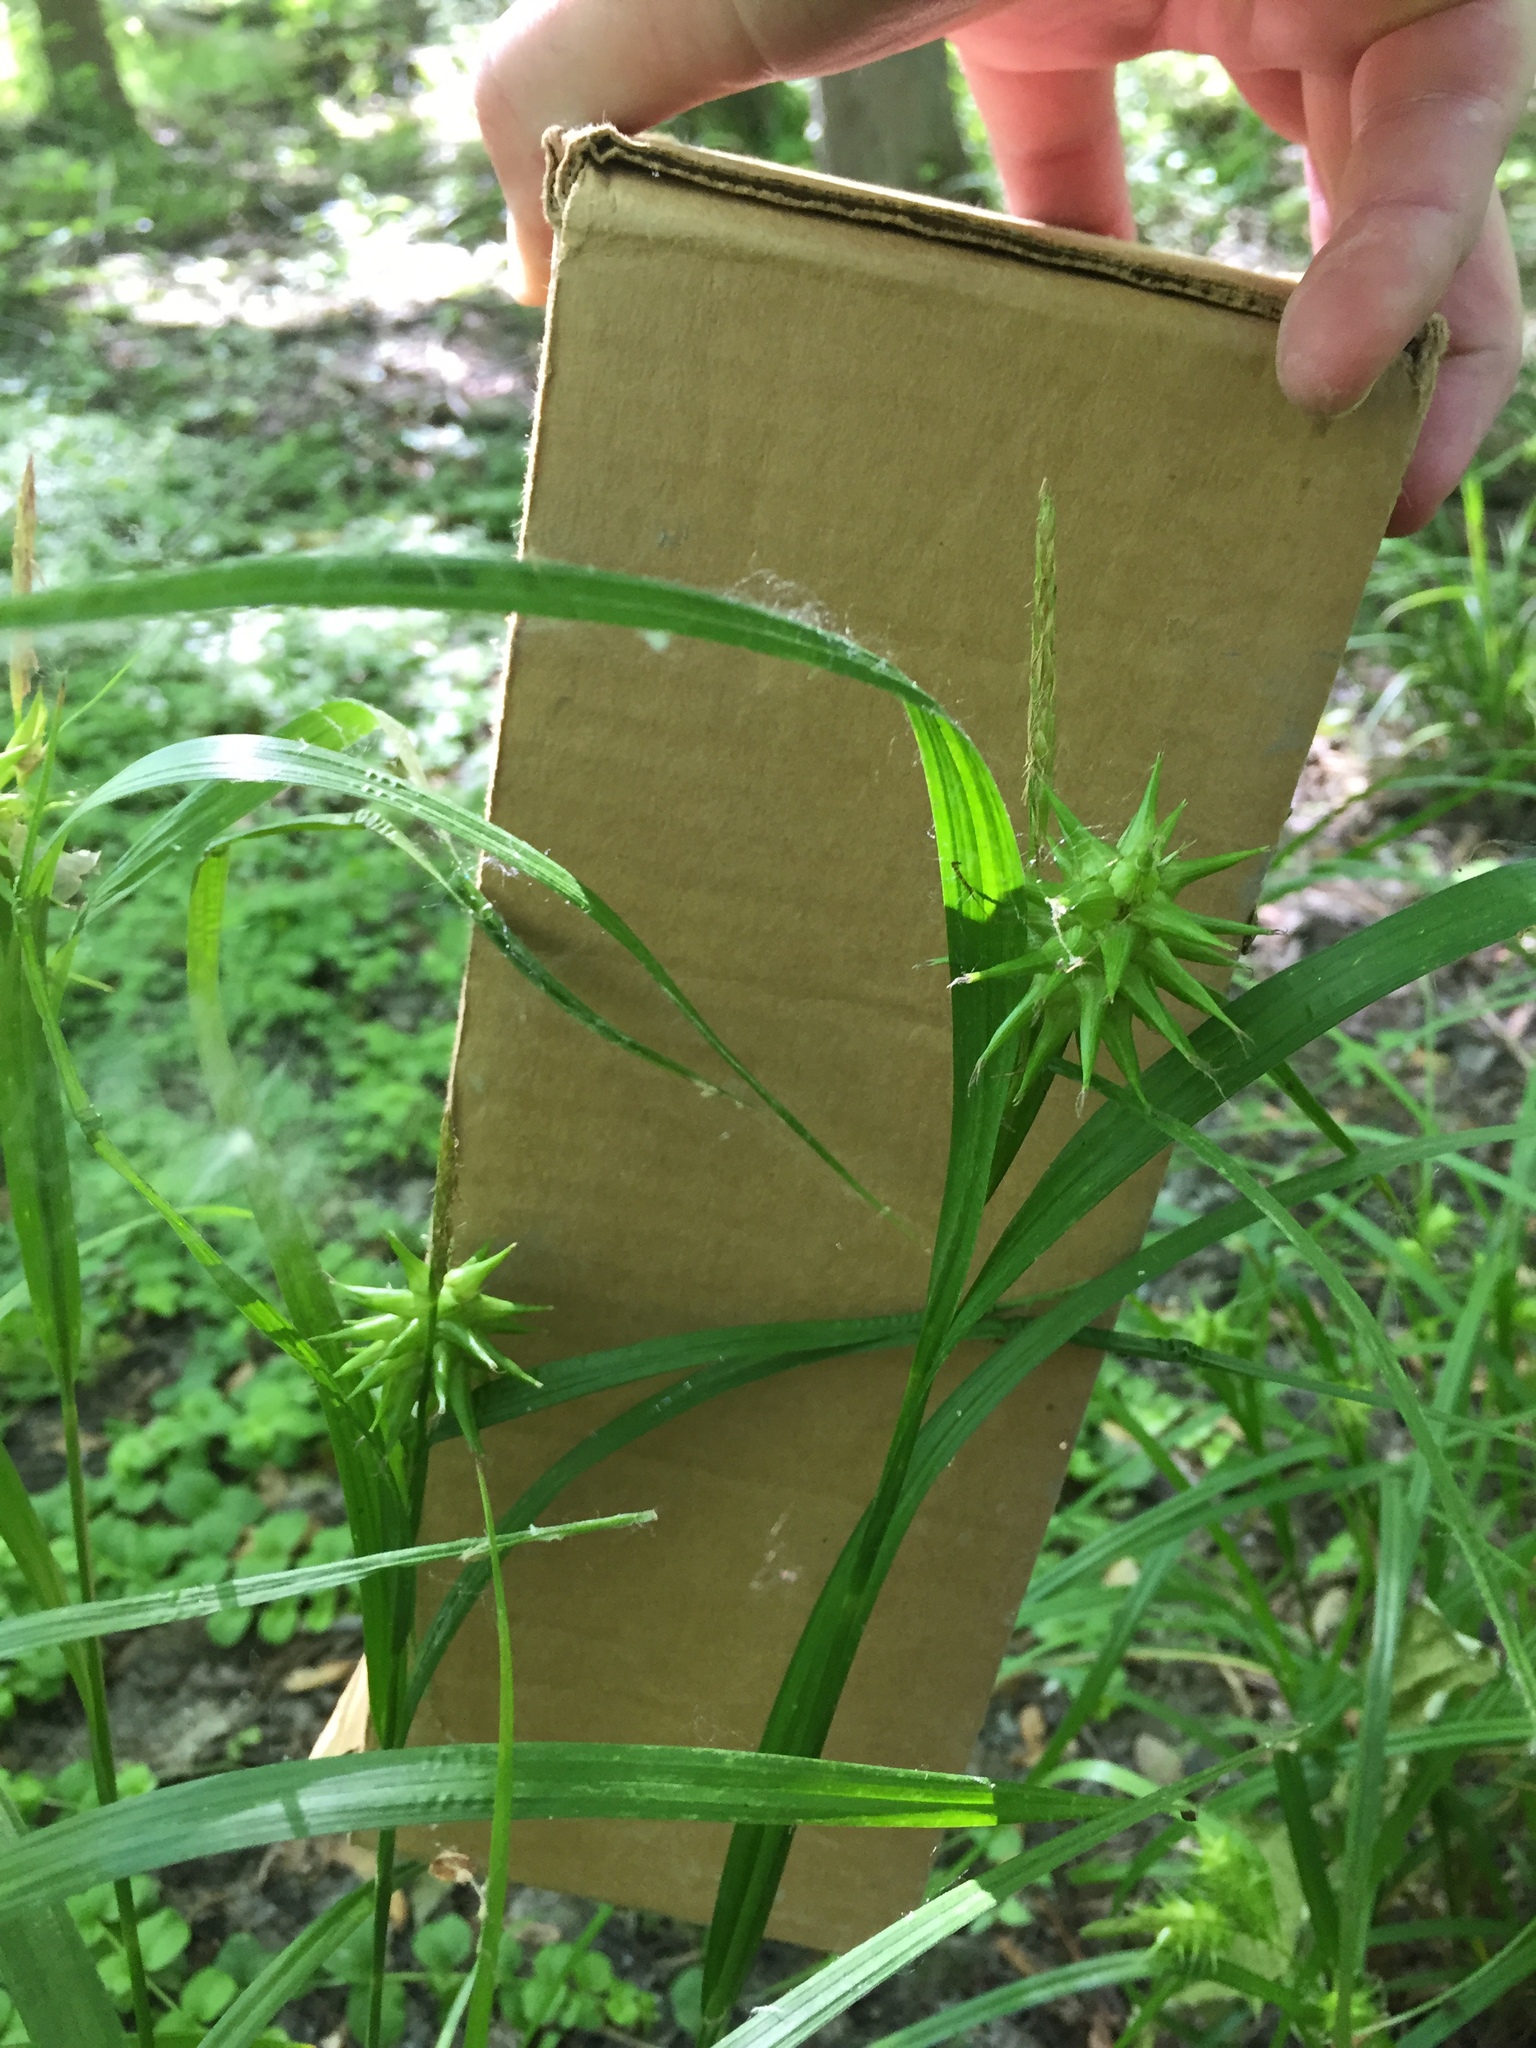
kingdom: Plantae
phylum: Tracheophyta
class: Liliopsida
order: Poales
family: Cyperaceae
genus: Carex
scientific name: Carex grayi
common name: Asa gray's sedge
